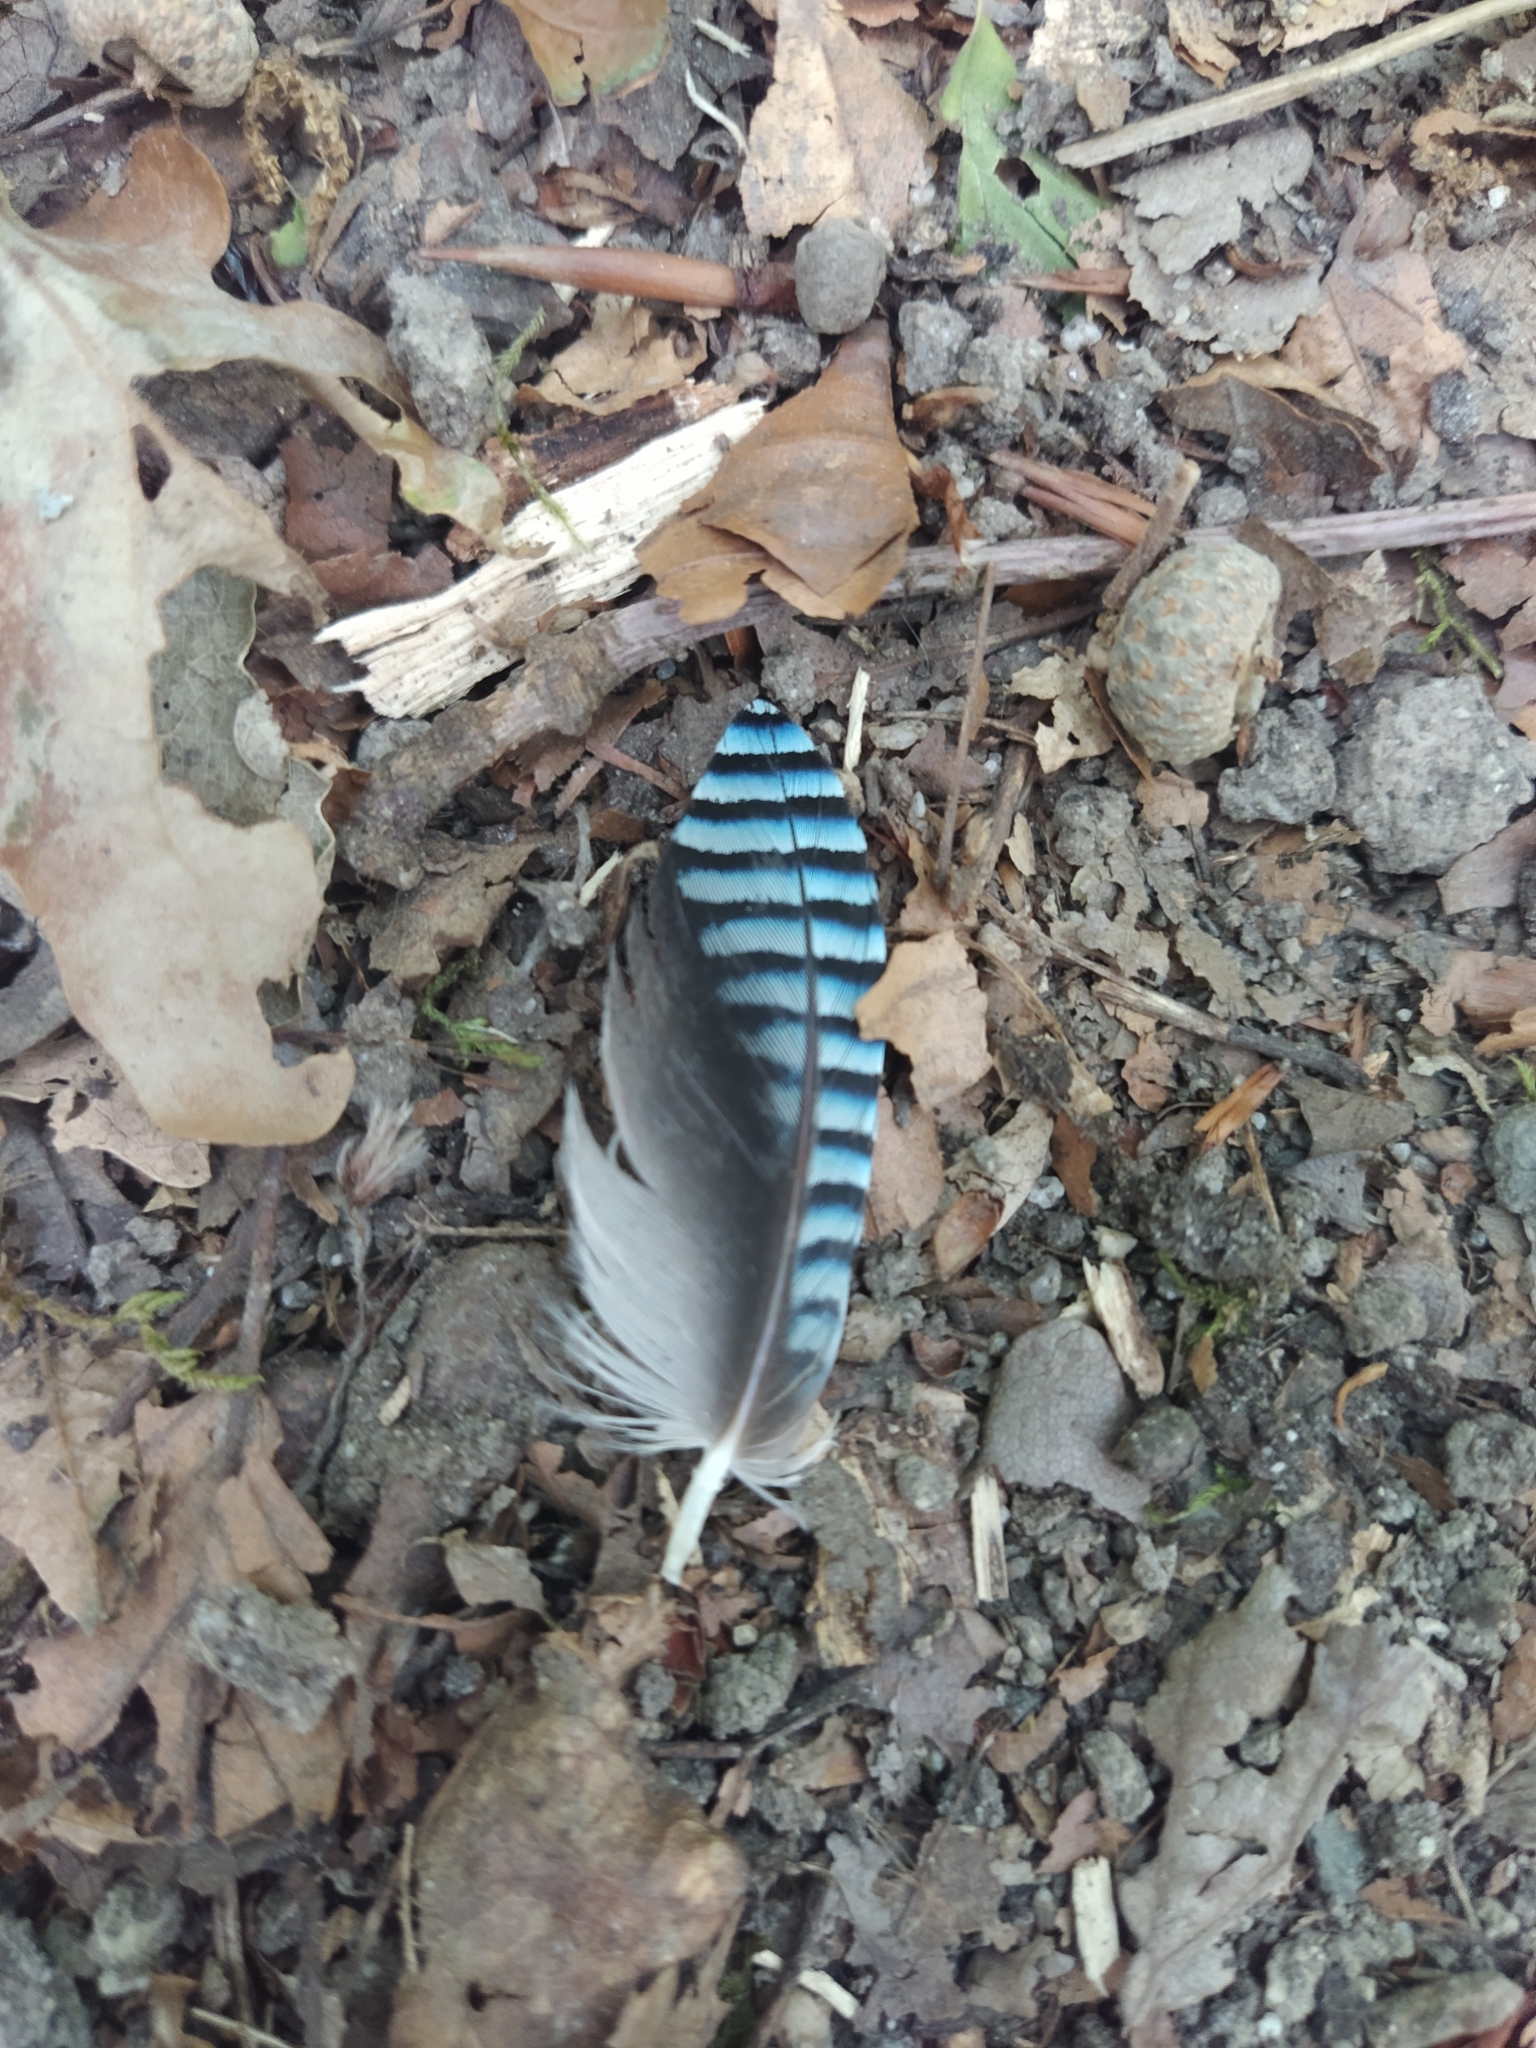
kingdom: Animalia
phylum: Chordata
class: Aves
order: Passeriformes
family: Corvidae
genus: Garrulus
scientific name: Garrulus glandarius
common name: Eurasian jay
